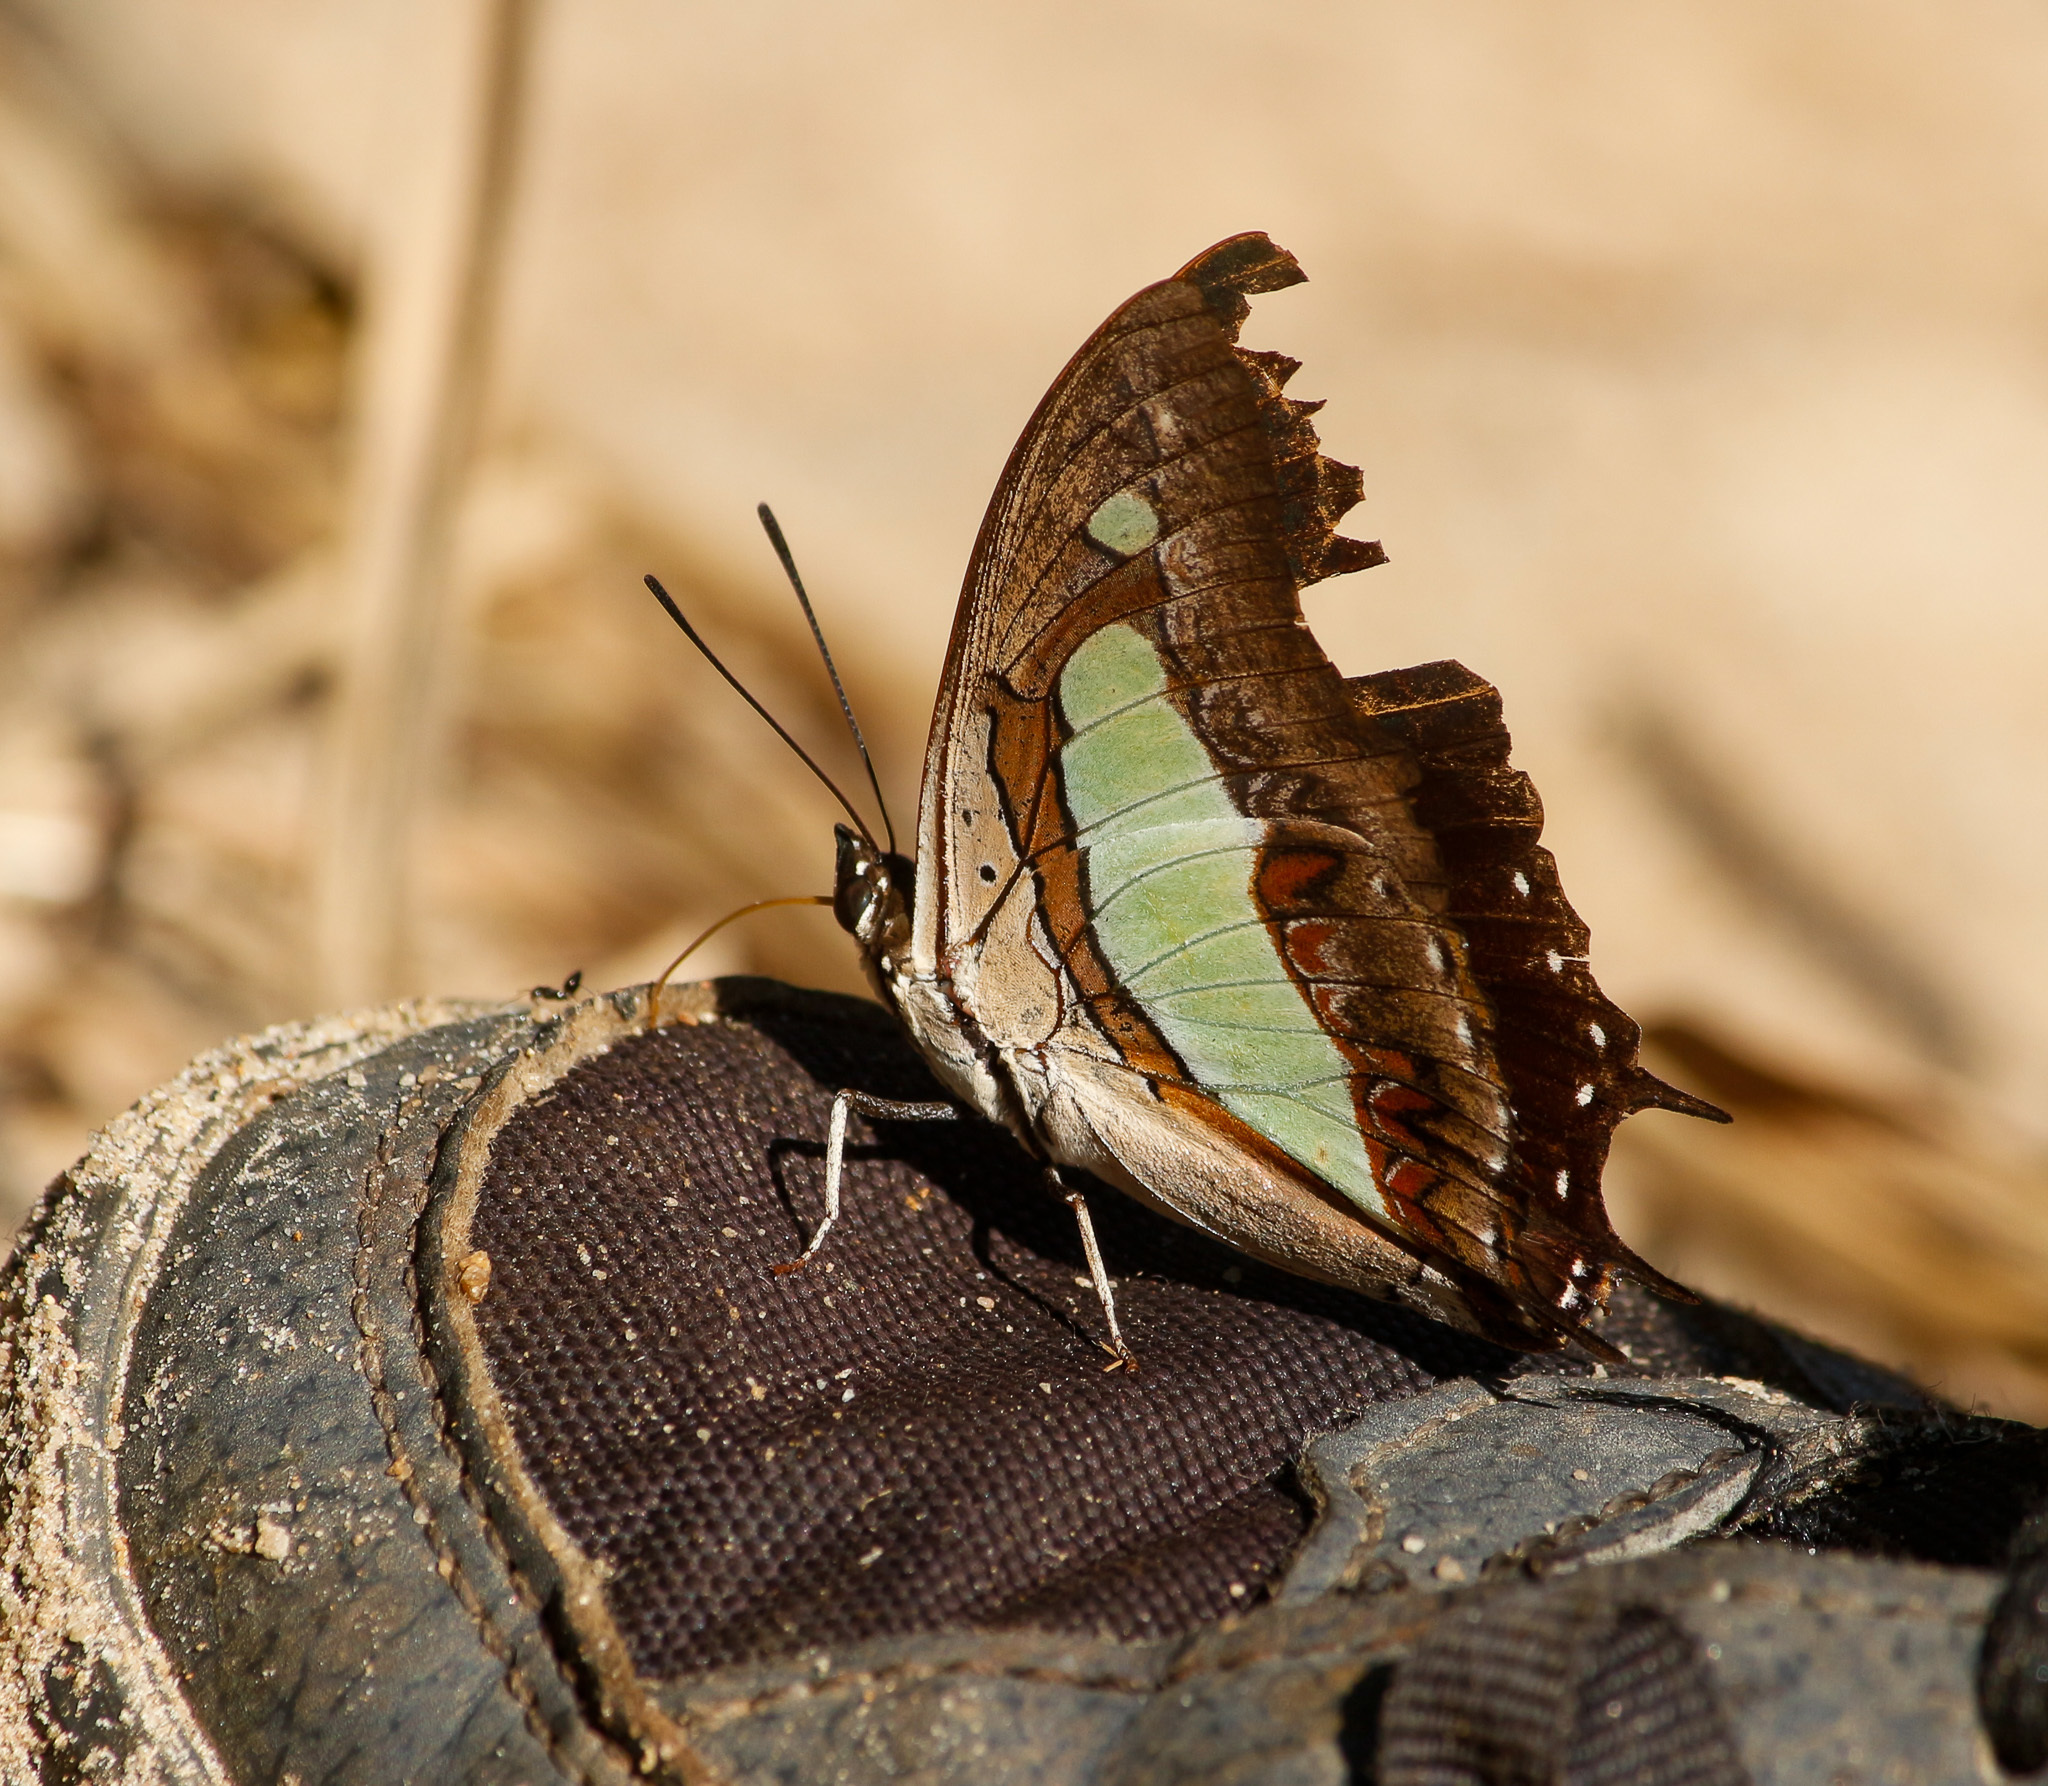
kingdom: Animalia
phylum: Arthropoda
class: Insecta
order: Lepidoptera
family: Nymphalidae
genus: Polyura
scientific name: Polyura
